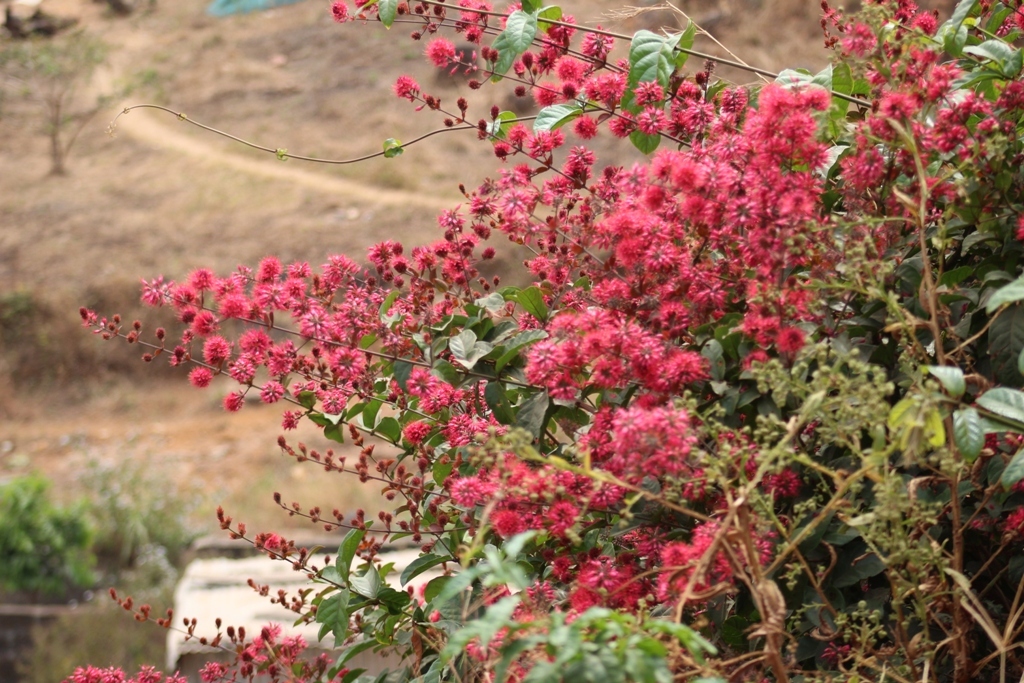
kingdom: Plantae
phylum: Tracheophyta
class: Magnoliopsida
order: Myrtales
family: Combretaceae
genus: Combretum
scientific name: Combretum comosum
